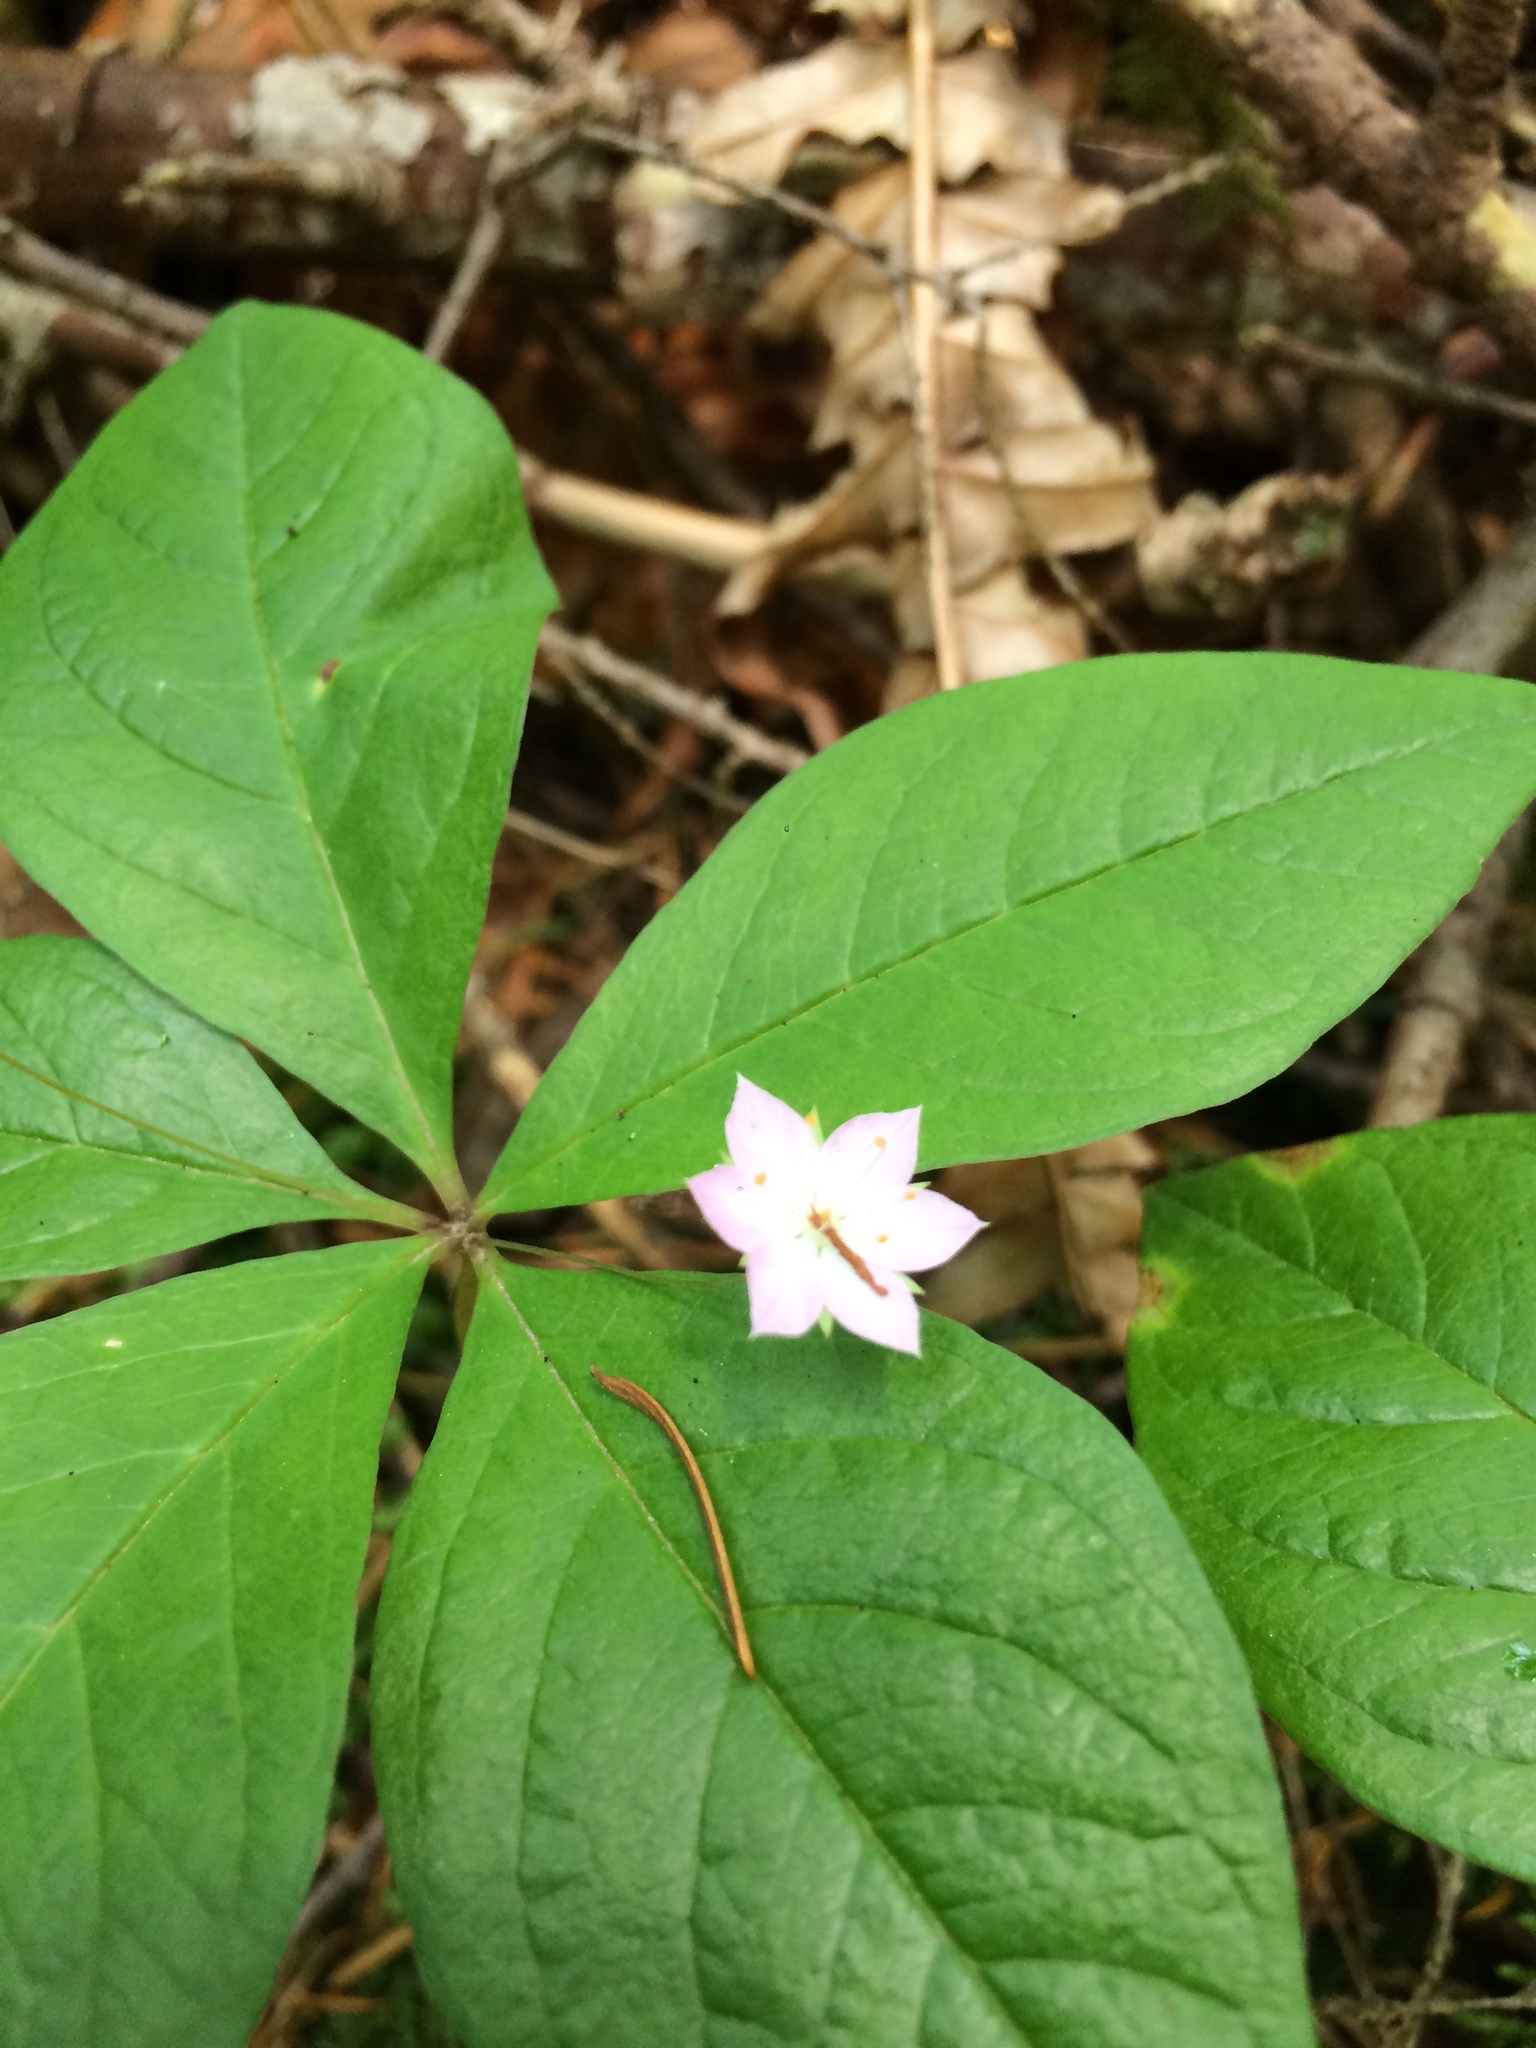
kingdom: Plantae
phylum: Tracheophyta
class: Magnoliopsida
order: Ericales
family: Primulaceae
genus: Lysimachia
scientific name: Lysimachia latifolia
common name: Pacific starflower
